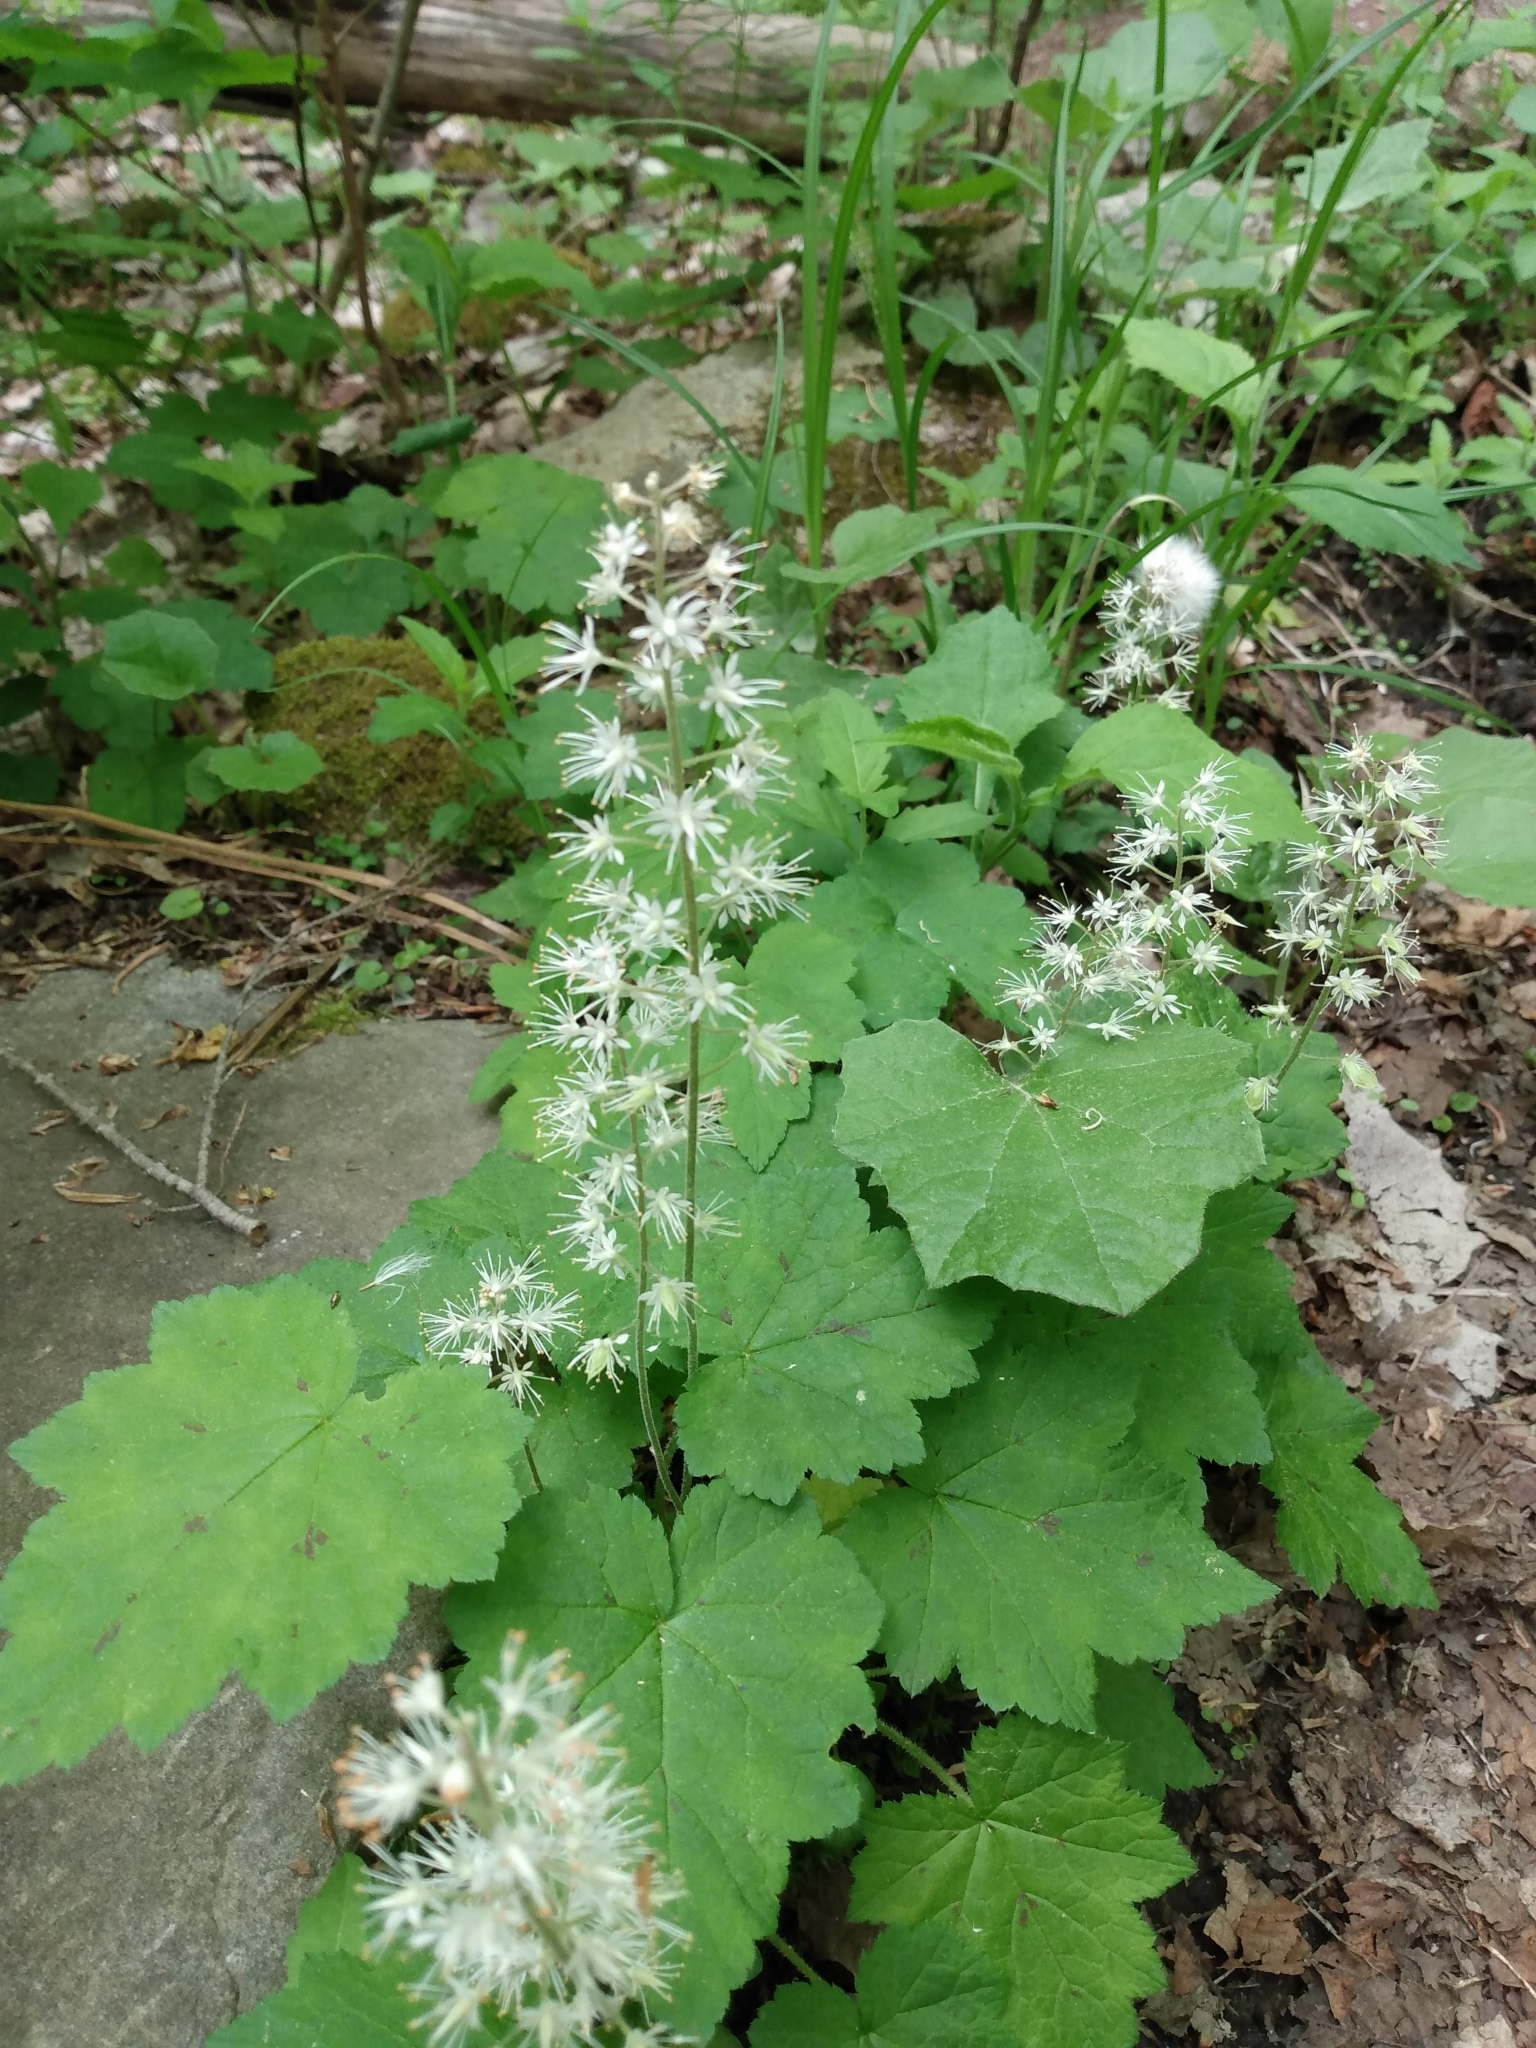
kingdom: Plantae
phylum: Tracheophyta
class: Magnoliopsida
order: Saxifragales
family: Saxifragaceae
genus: Tiarella
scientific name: Tiarella stolonifera
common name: Stoloniferous foamflower
